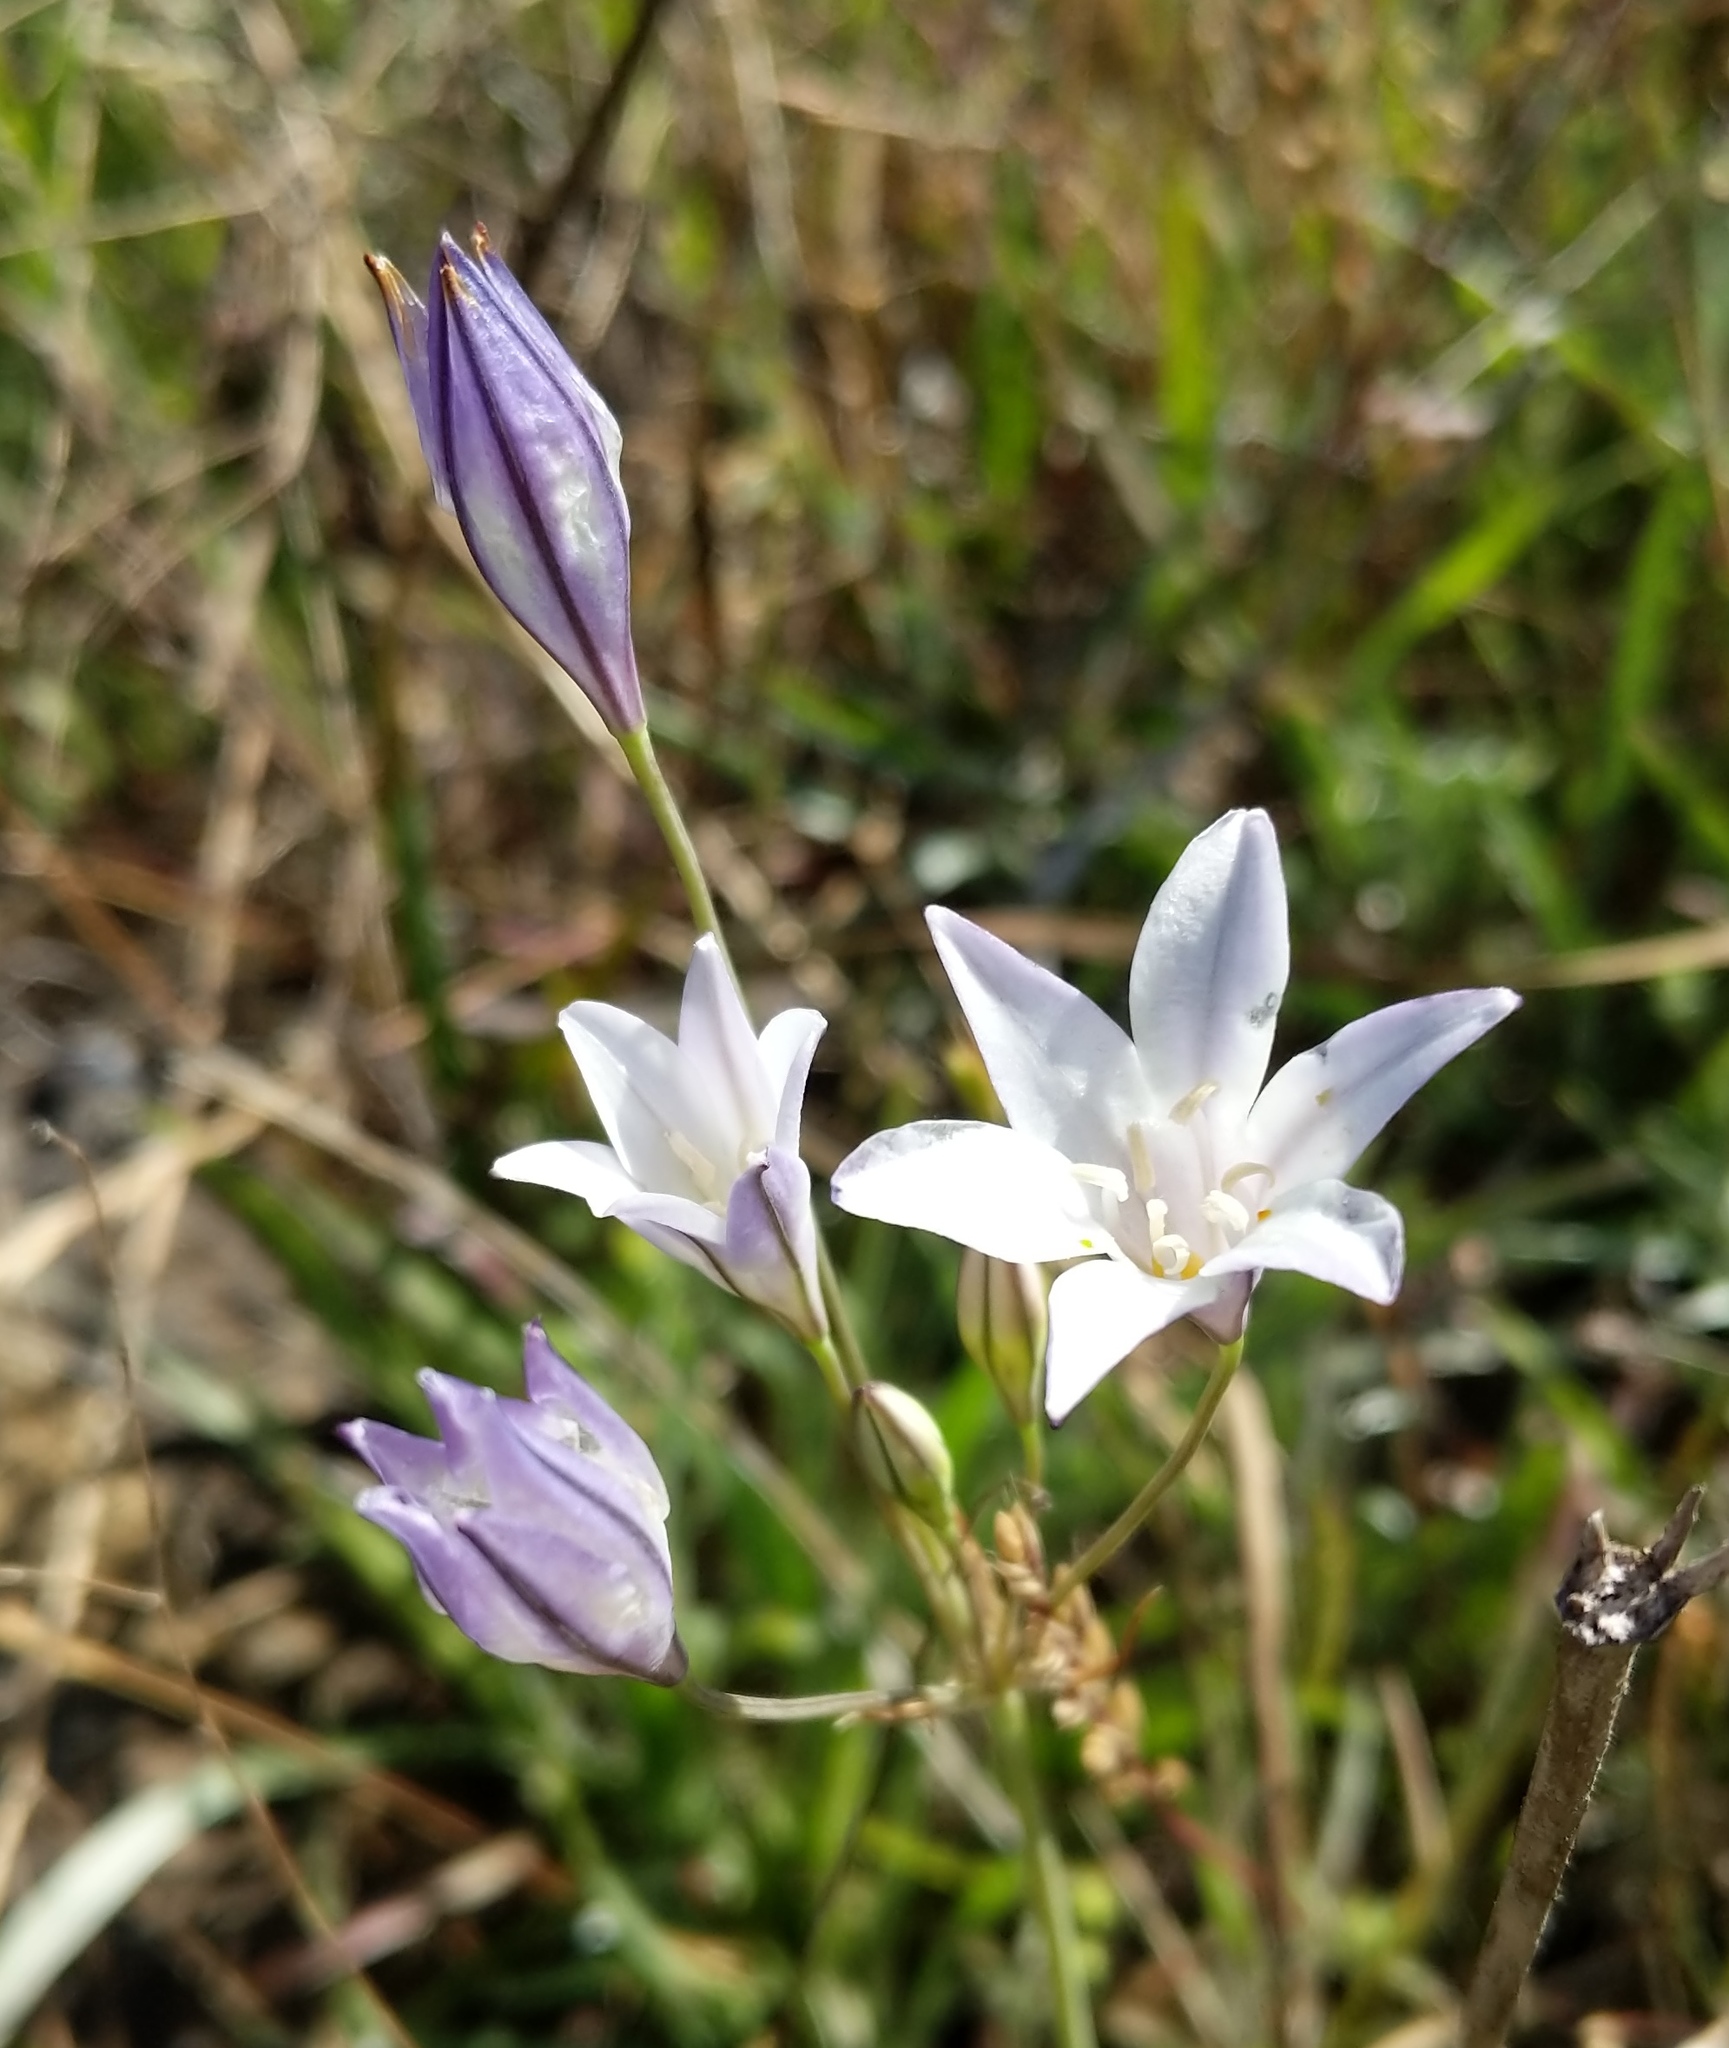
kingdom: Plantae
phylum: Tracheophyta
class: Liliopsida
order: Asparagales
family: Asparagaceae
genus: Triteleia
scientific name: Triteleia peduncularis
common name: Long-ray brodiaea
